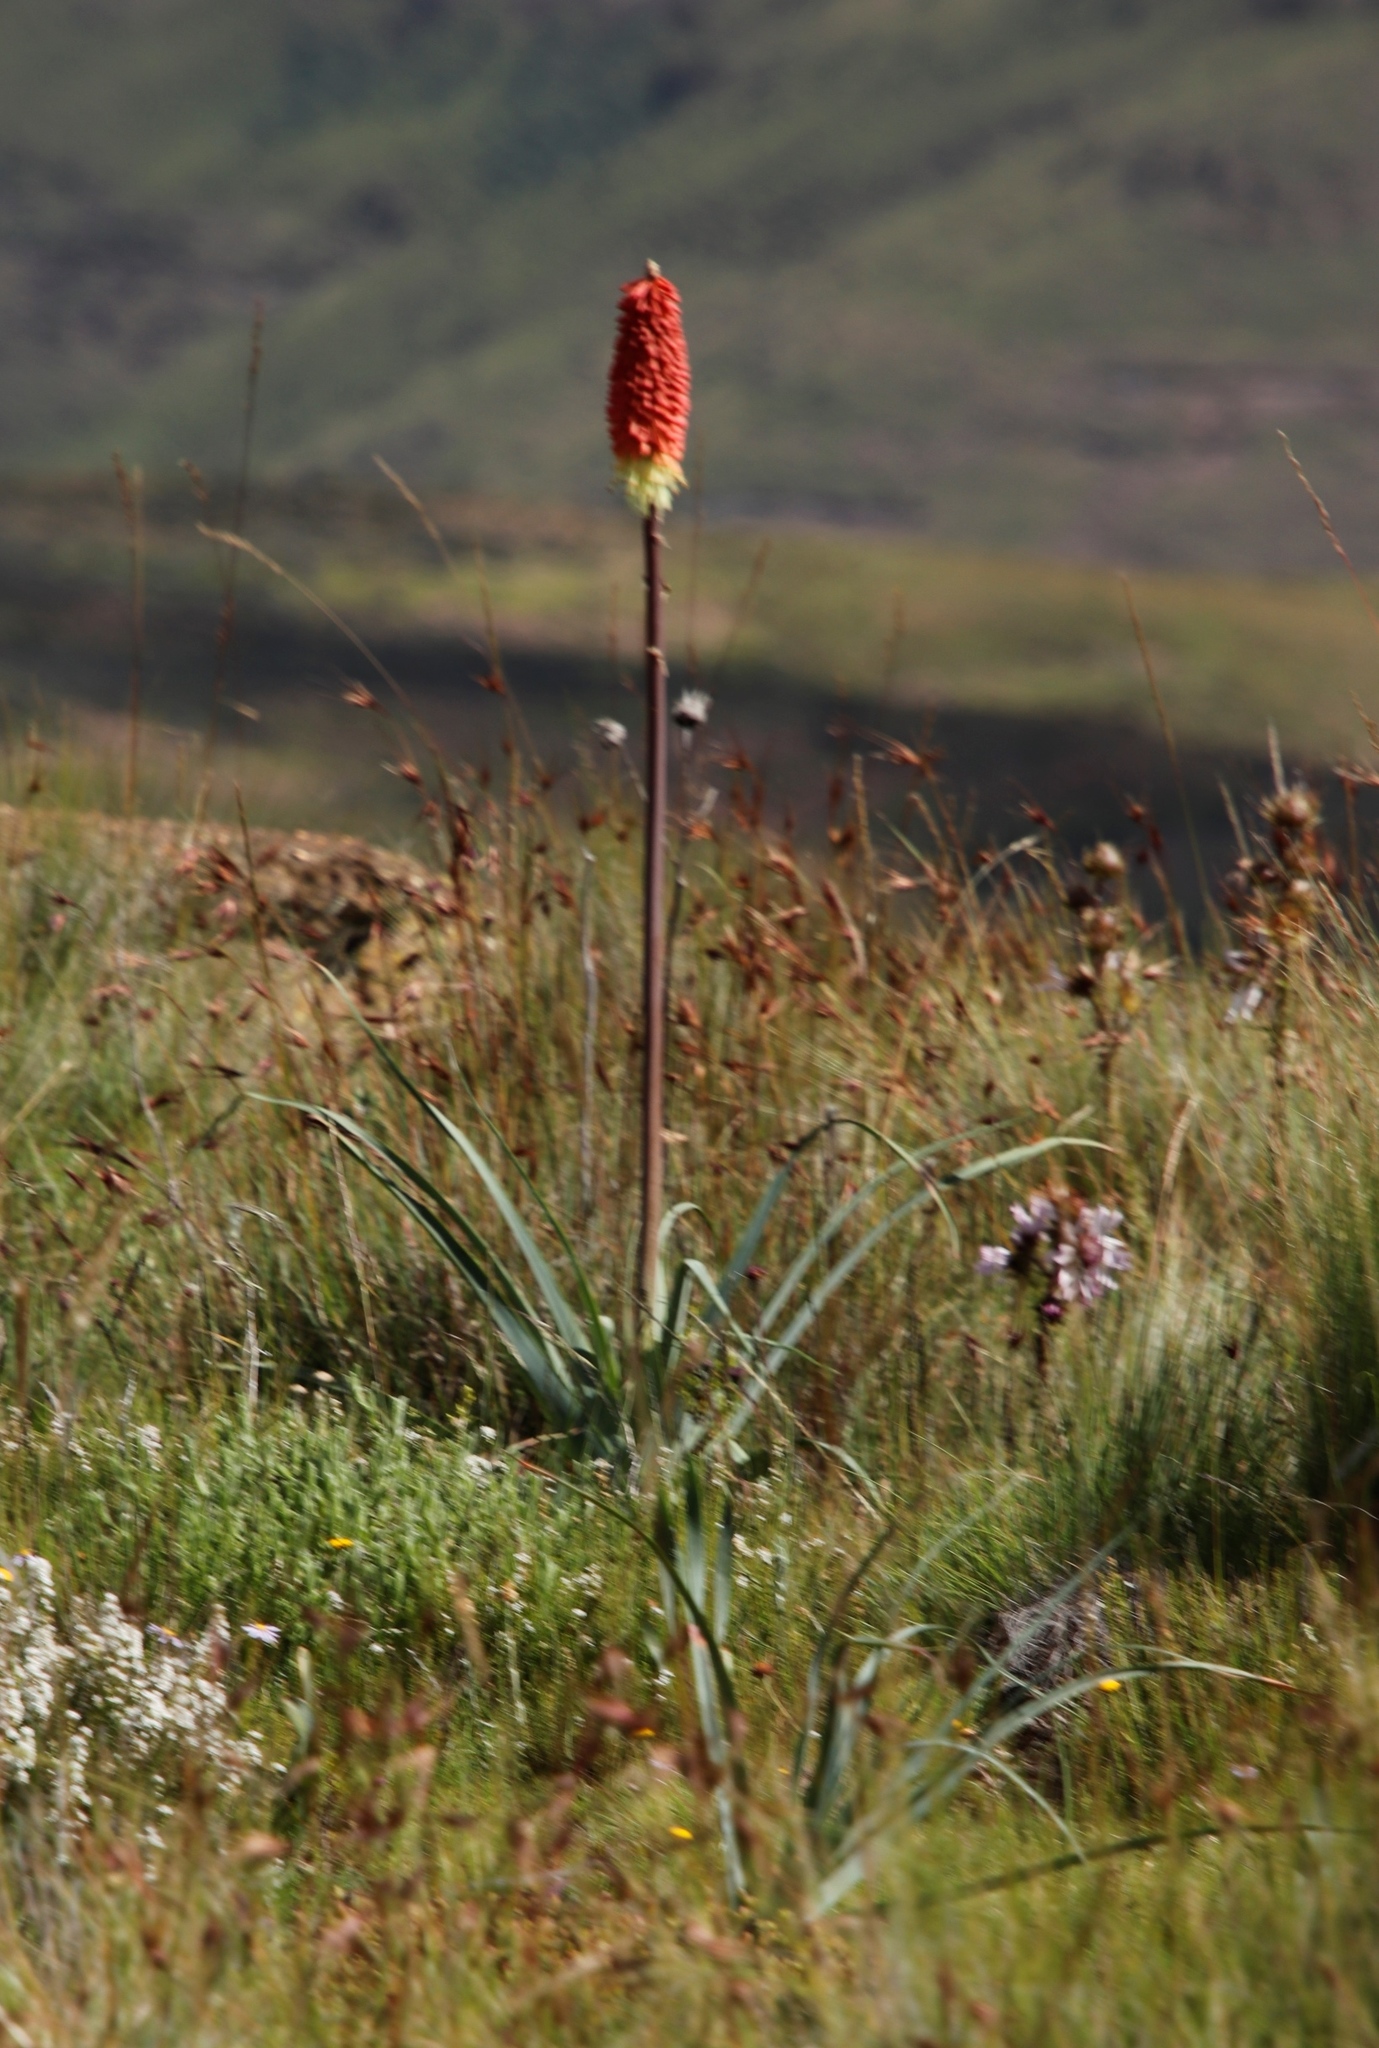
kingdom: Plantae
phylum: Tracheophyta
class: Liliopsida
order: Asparagales
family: Asphodelaceae
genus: Kniphofia
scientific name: Kniphofia caulescens
